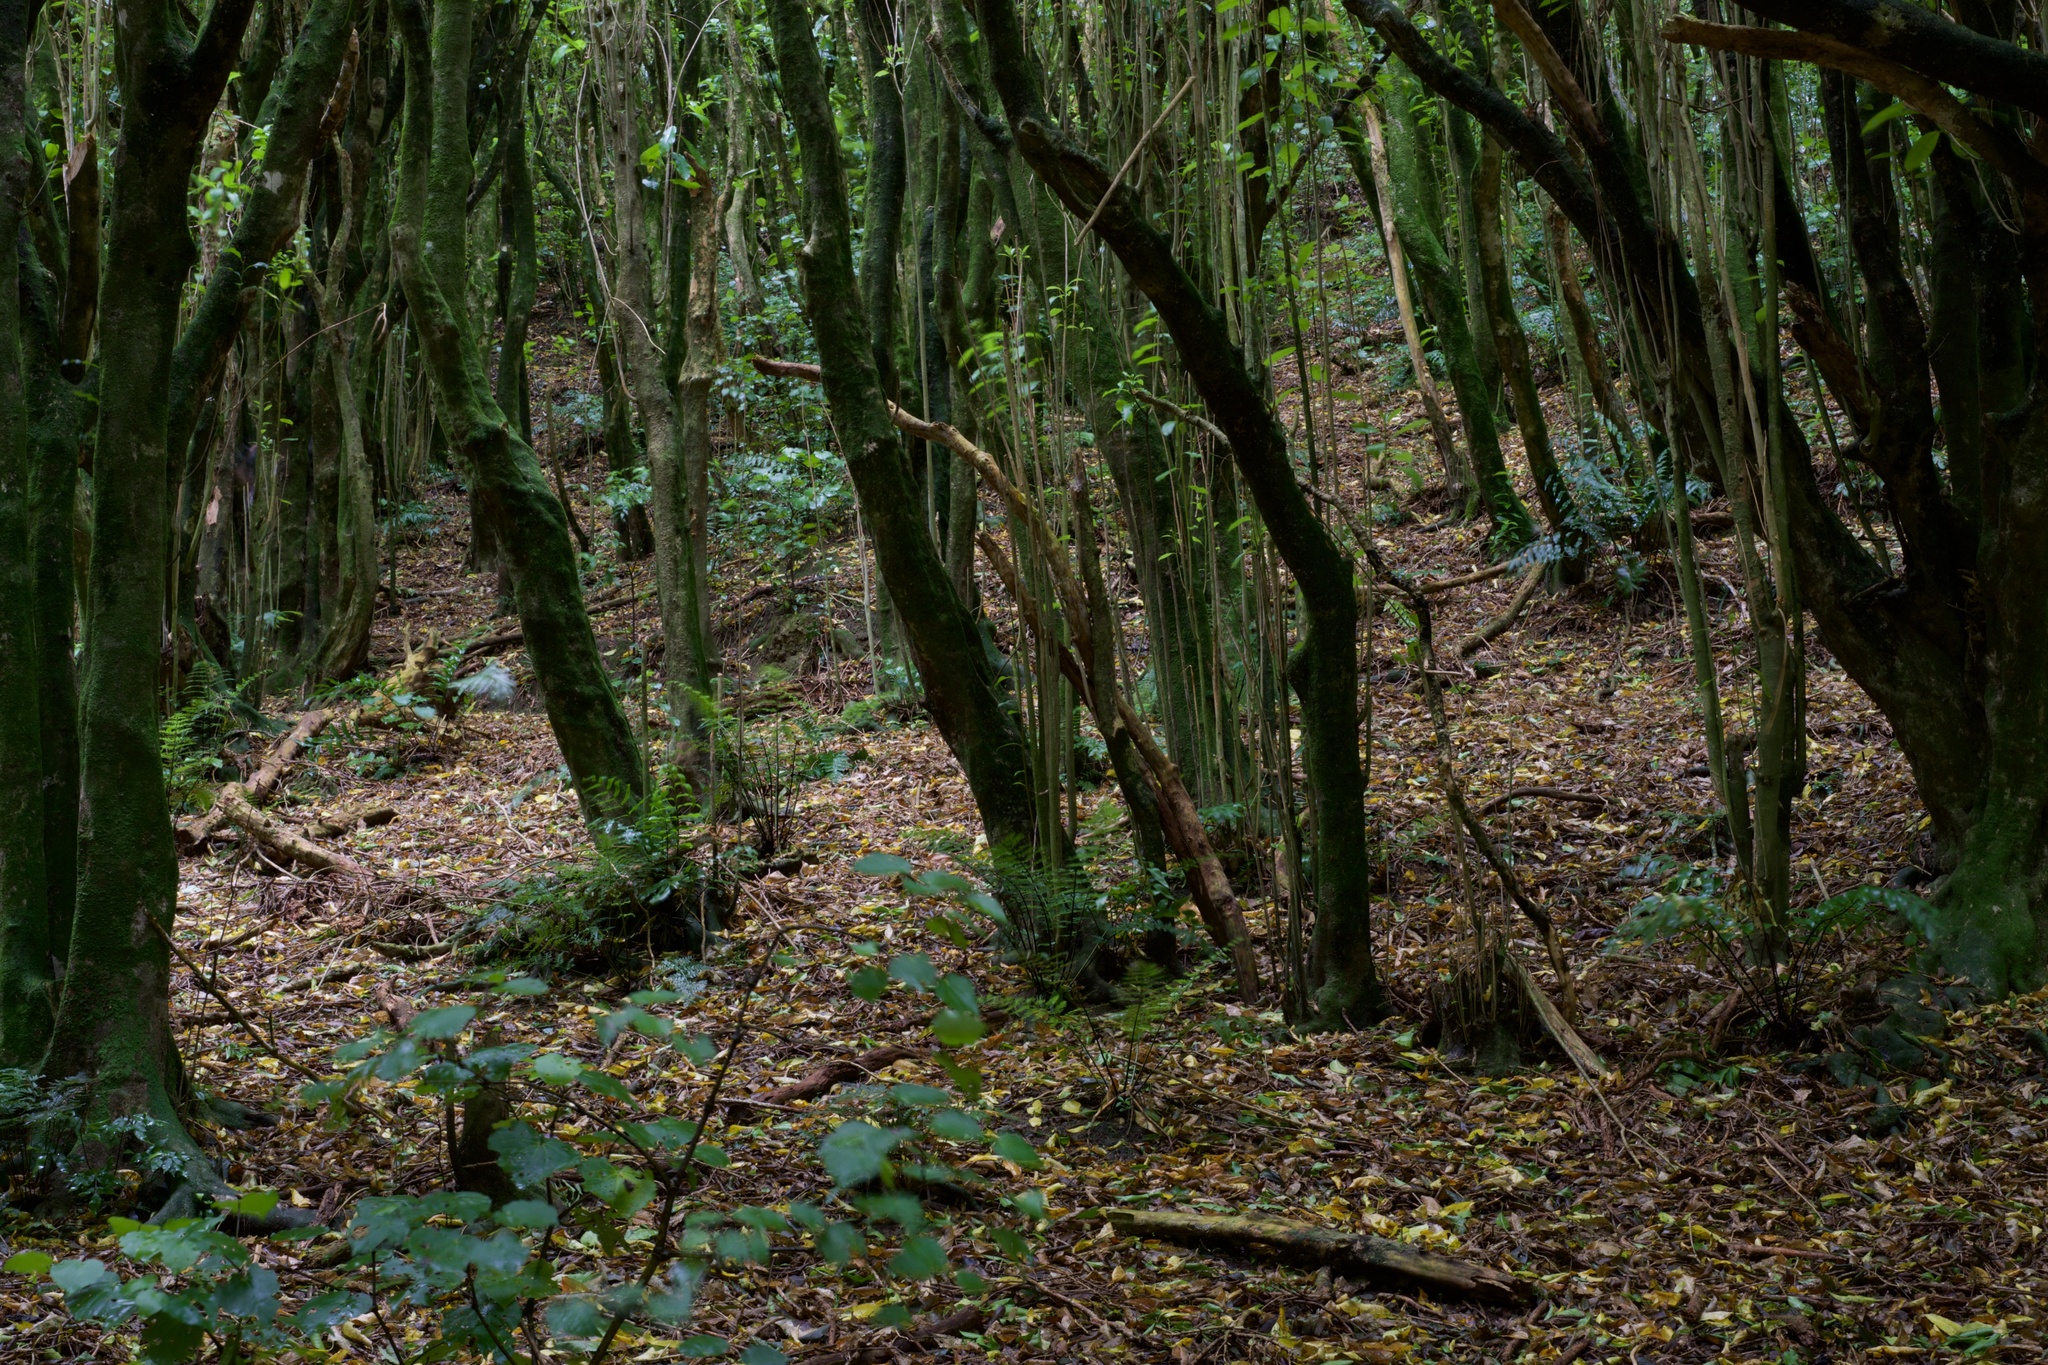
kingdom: Plantae
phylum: Tracheophyta
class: Magnoliopsida
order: Malpighiales
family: Violaceae
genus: Melicytus
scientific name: Melicytus ramiflorus
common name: Mahoe
